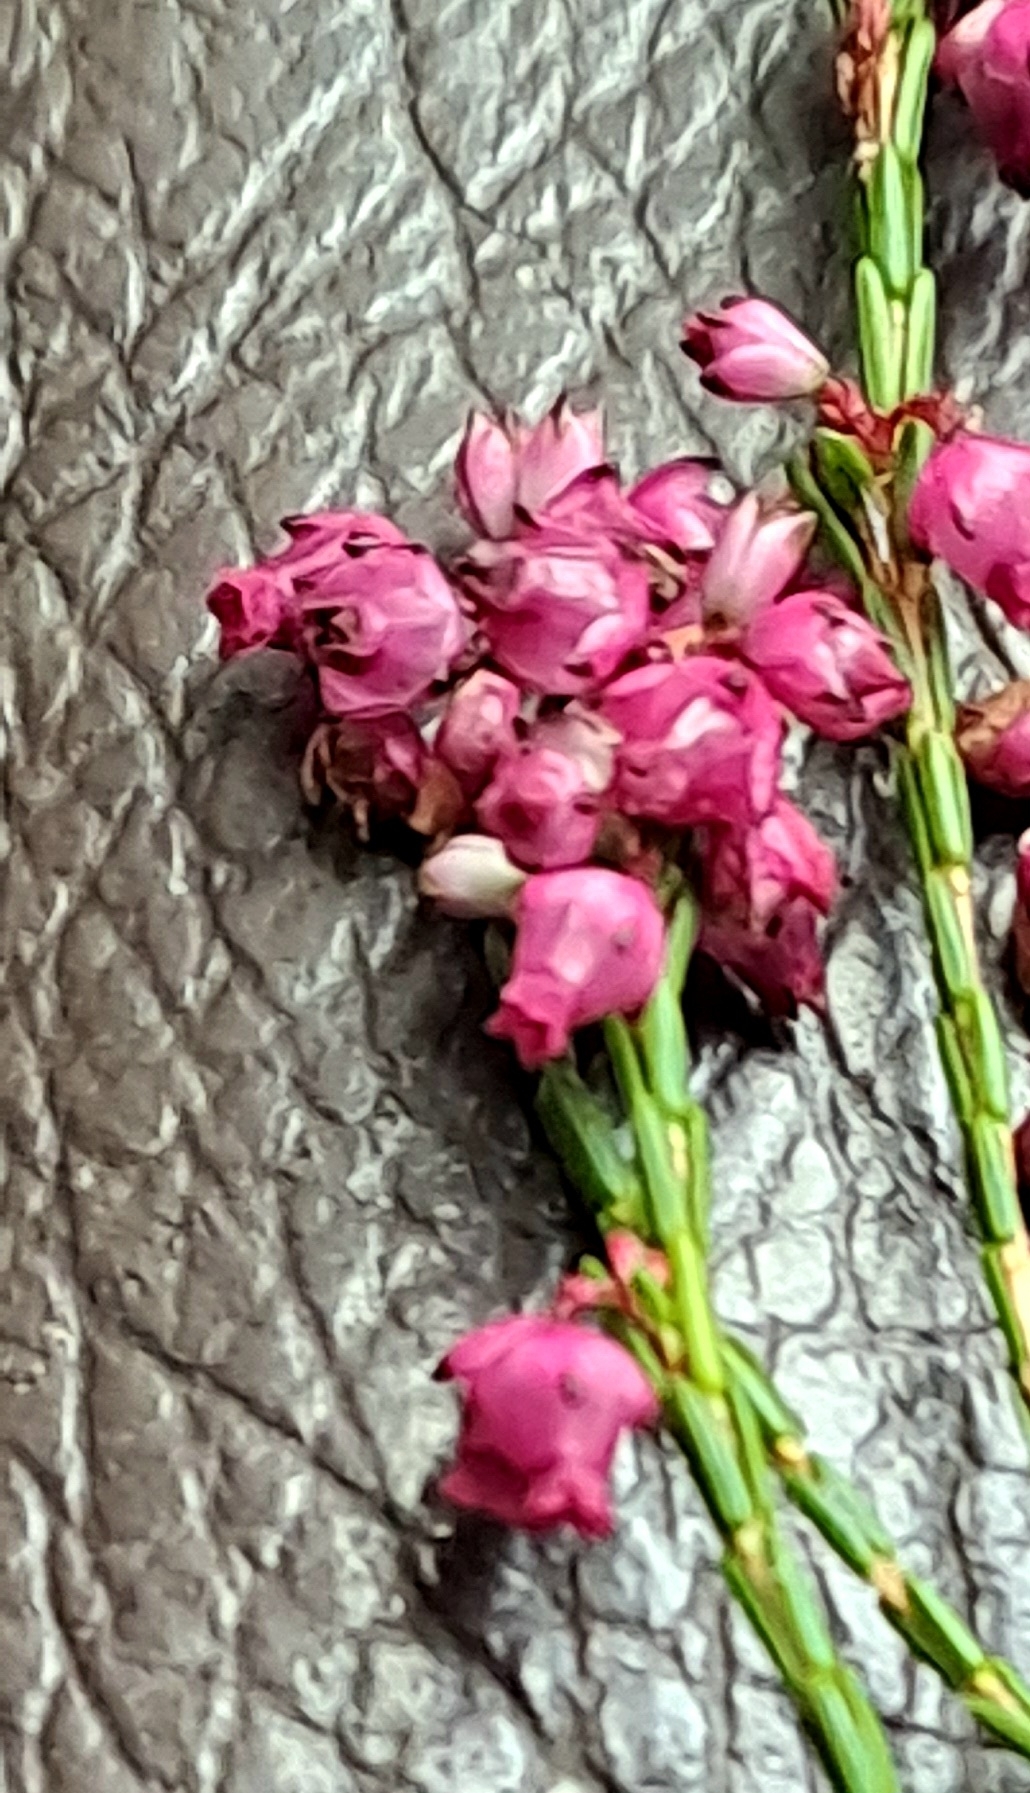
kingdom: Plantae
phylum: Tracheophyta
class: Magnoliopsida
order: Ericales
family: Ericaceae
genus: Erica
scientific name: Erica rhopalantha
